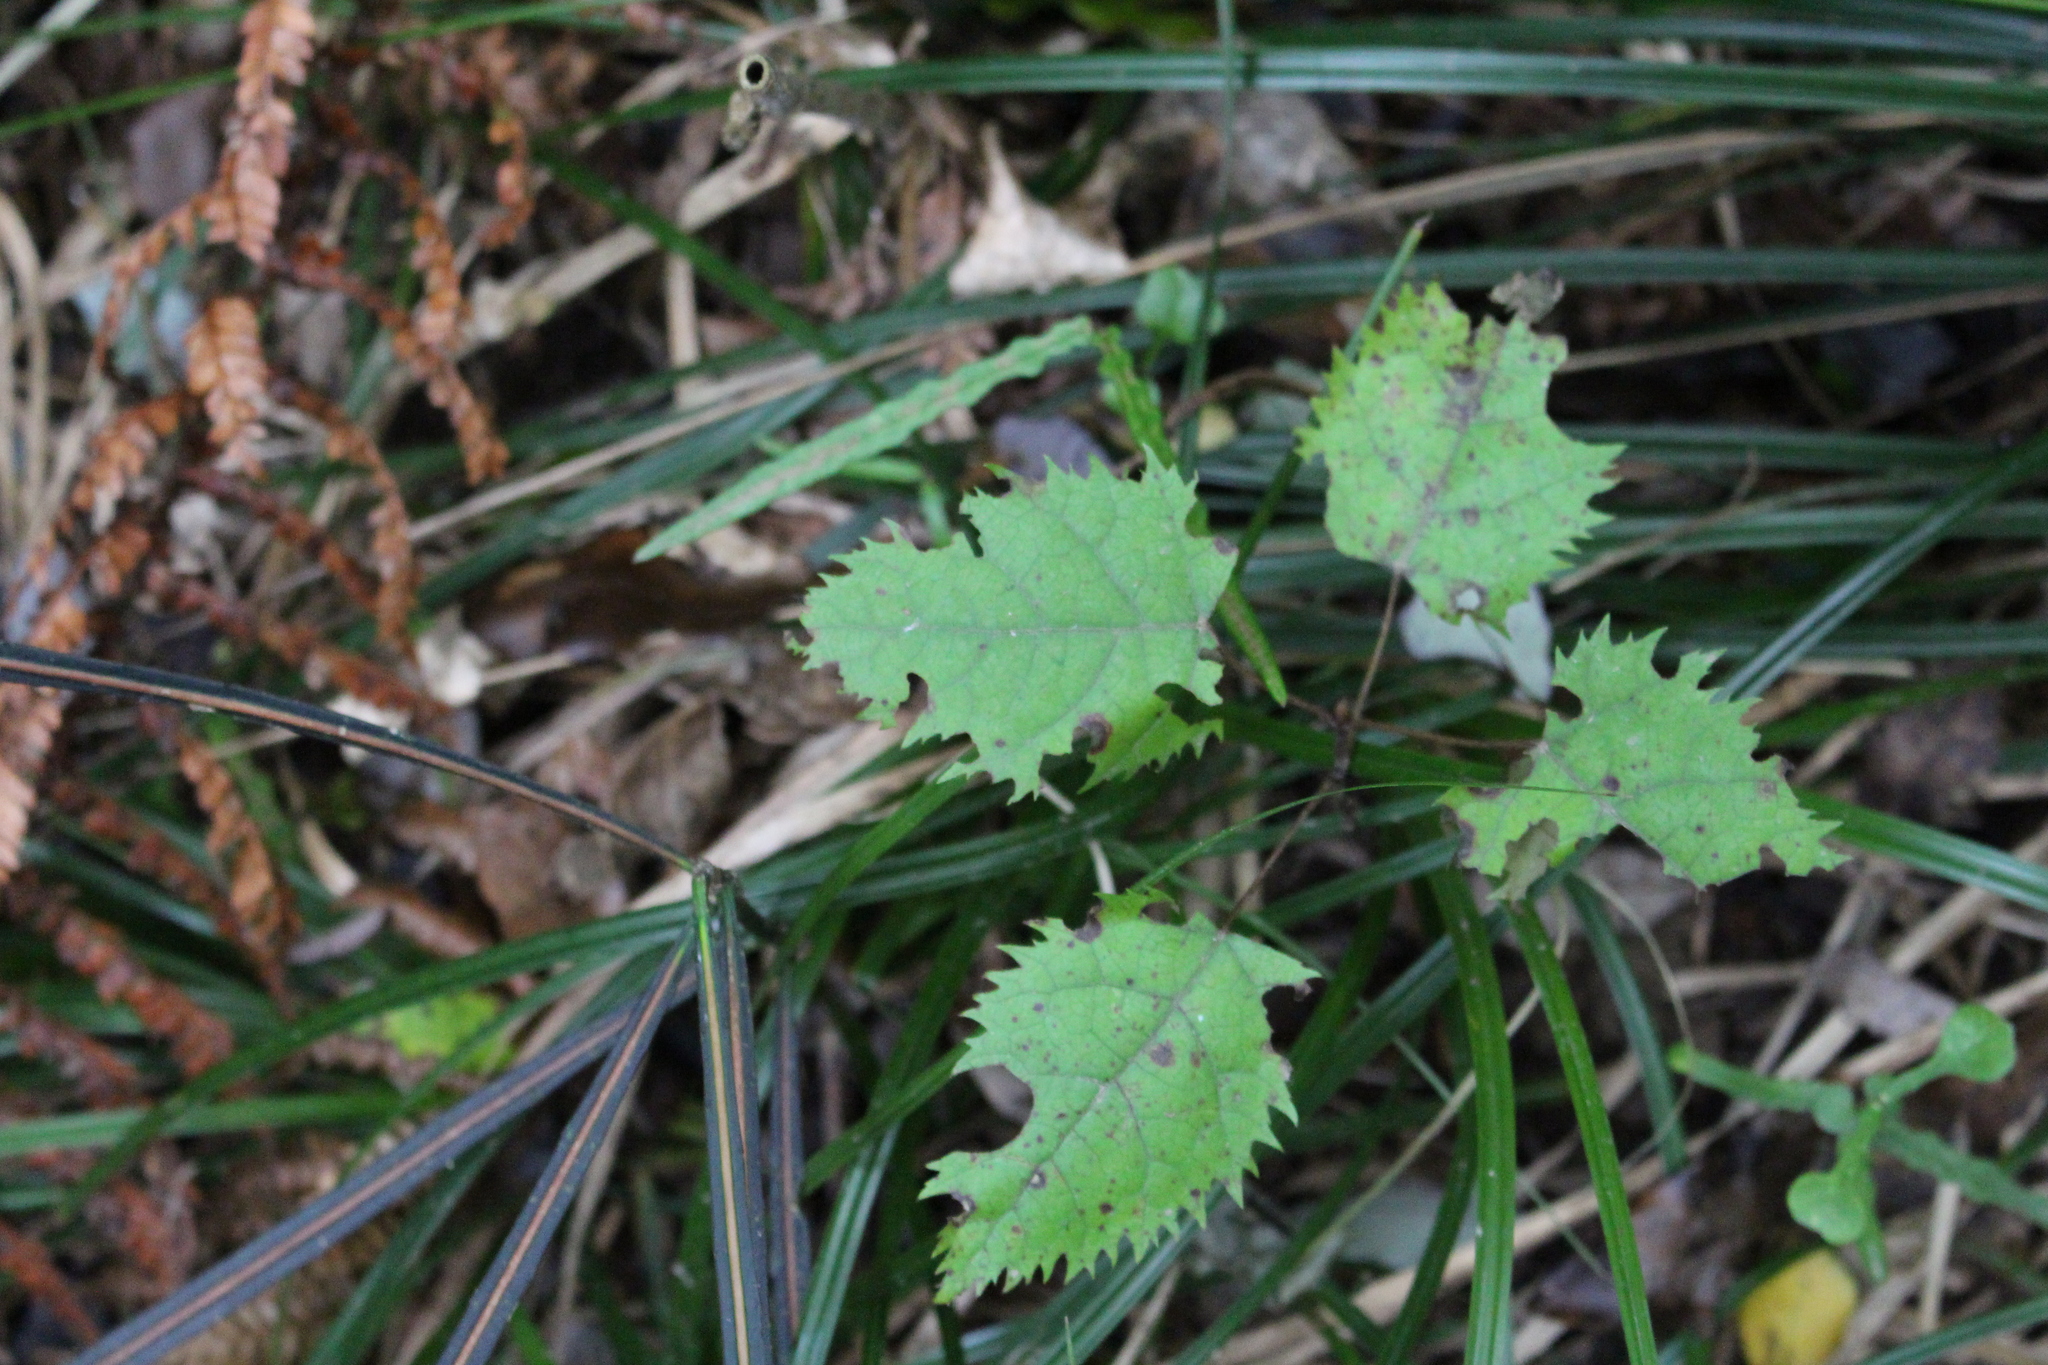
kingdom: Plantae
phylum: Tracheophyta
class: Magnoliopsida
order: Oxalidales
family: Elaeocarpaceae
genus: Aristotelia
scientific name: Aristotelia serrata
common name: New zealand wineberry
